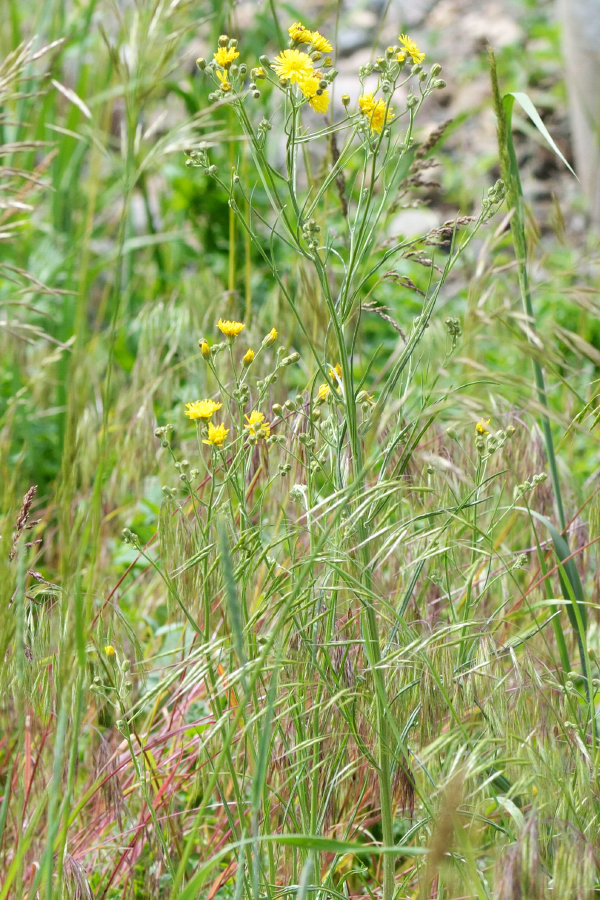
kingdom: Plantae
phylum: Tracheophyta
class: Magnoliopsida
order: Asterales
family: Asteraceae
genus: Crepis
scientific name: Crepis tectorum
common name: Narrow-leaved hawk's-beard
